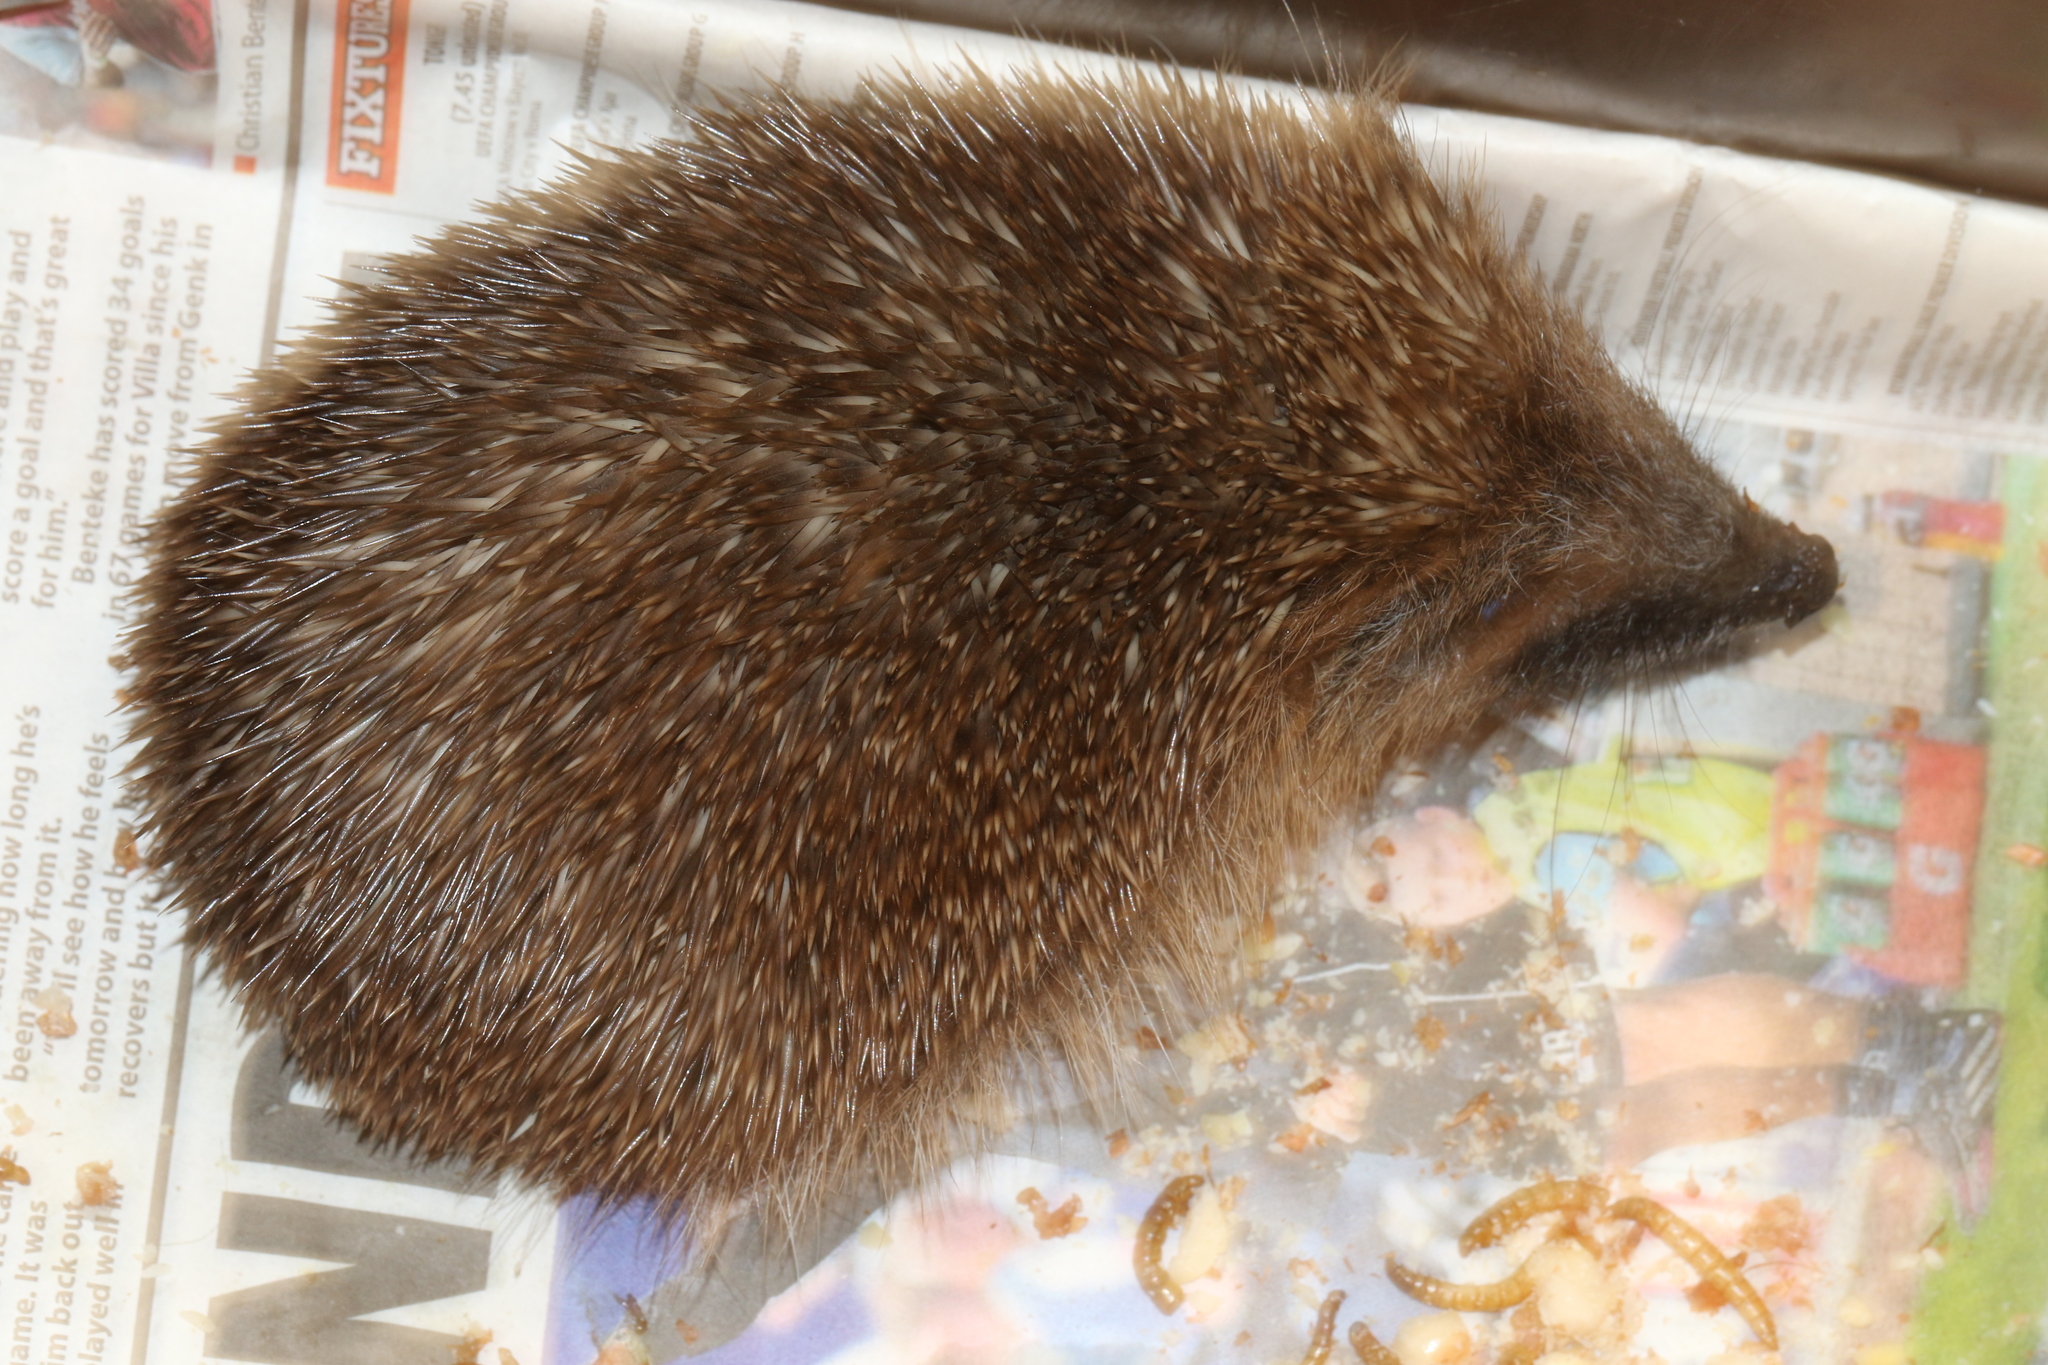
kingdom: Animalia
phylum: Chordata
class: Mammalia
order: Erinaceomorpha
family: Erinaceidae
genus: Erinaceus
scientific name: Erinaceus europaeus
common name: West european hedgehog
